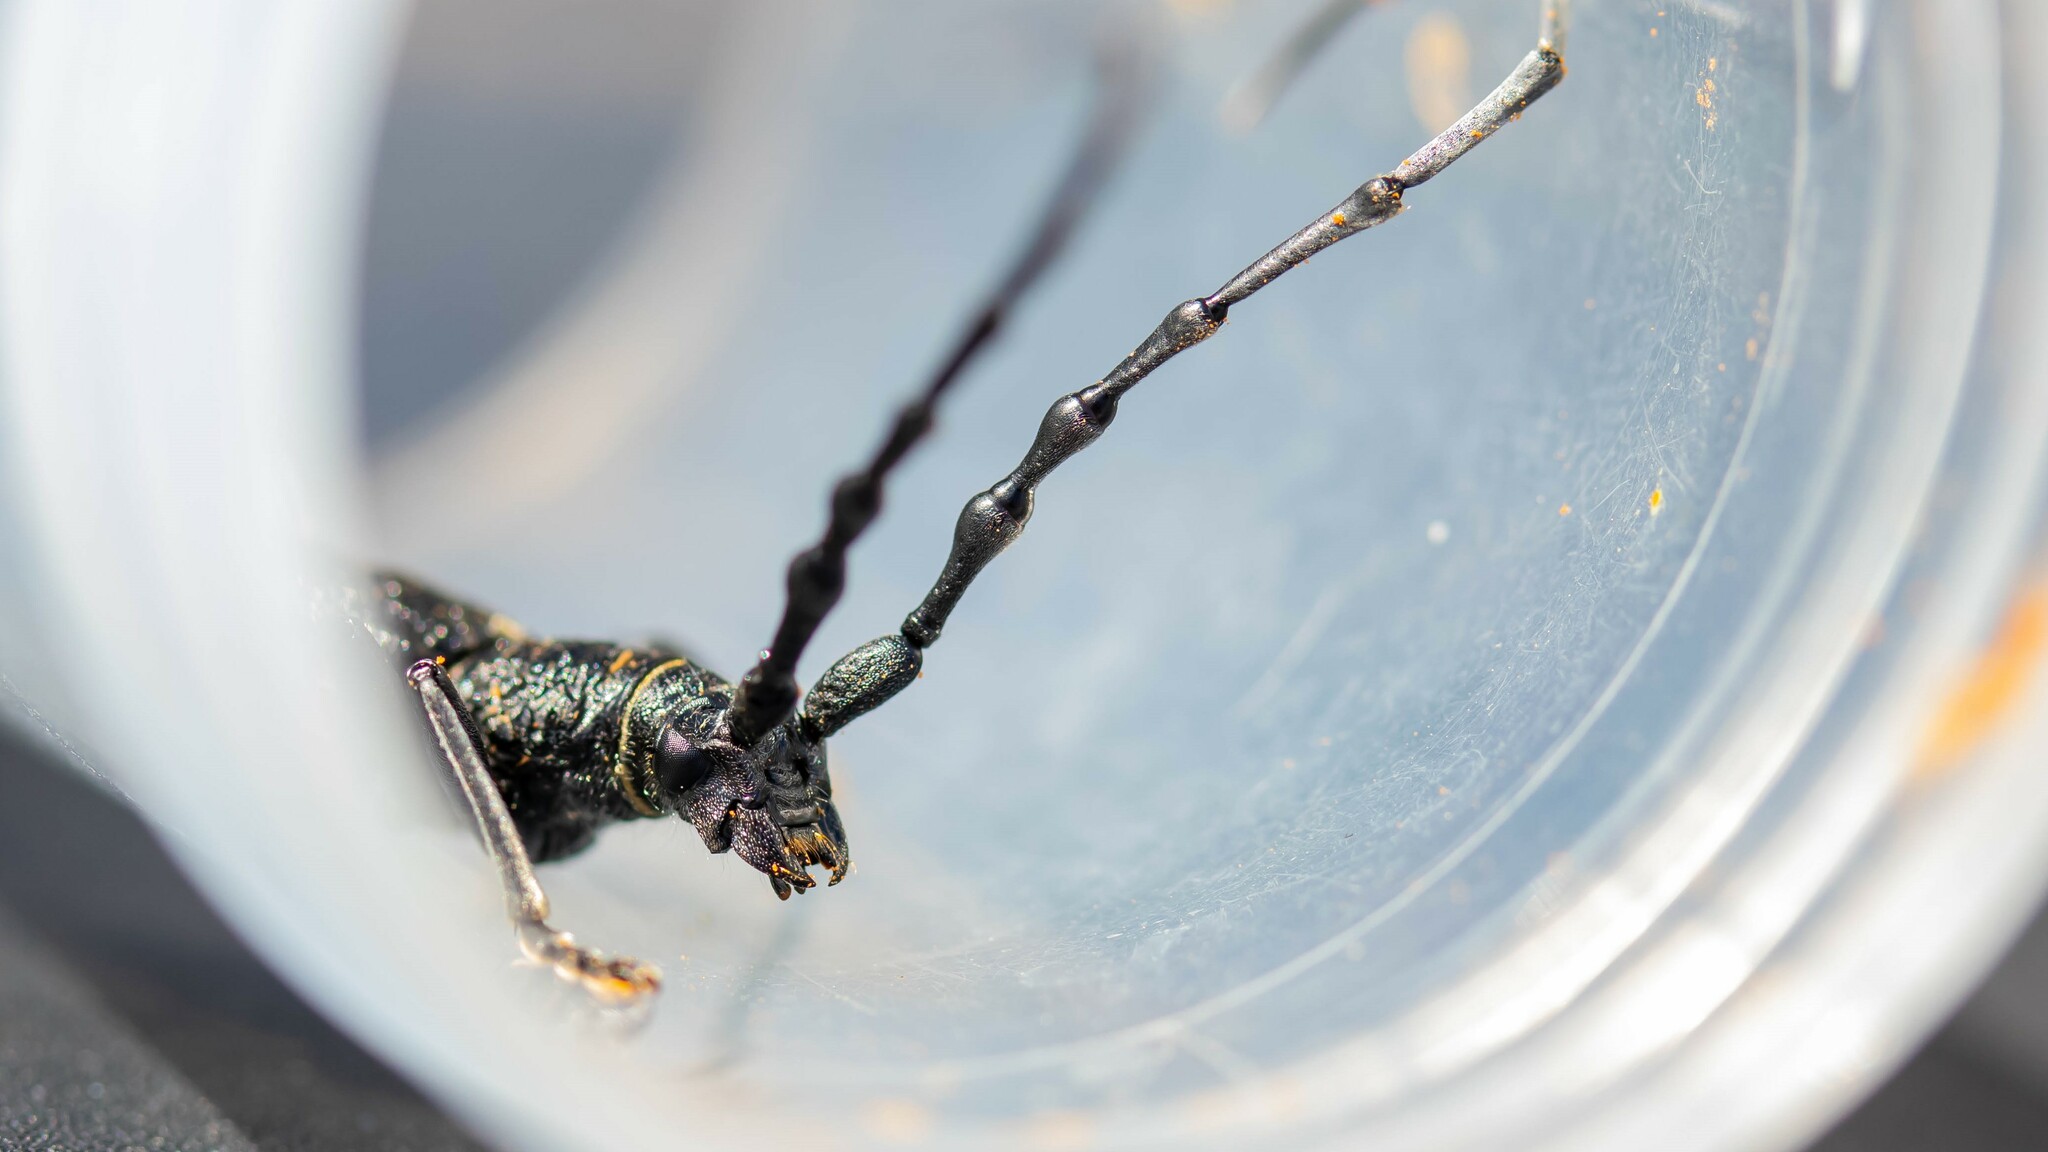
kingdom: Animalia
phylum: Arthropoda
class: Insecta
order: Coleoptera
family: Cerambycidae
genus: Cerambyx
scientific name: Cerambyx scopolii
